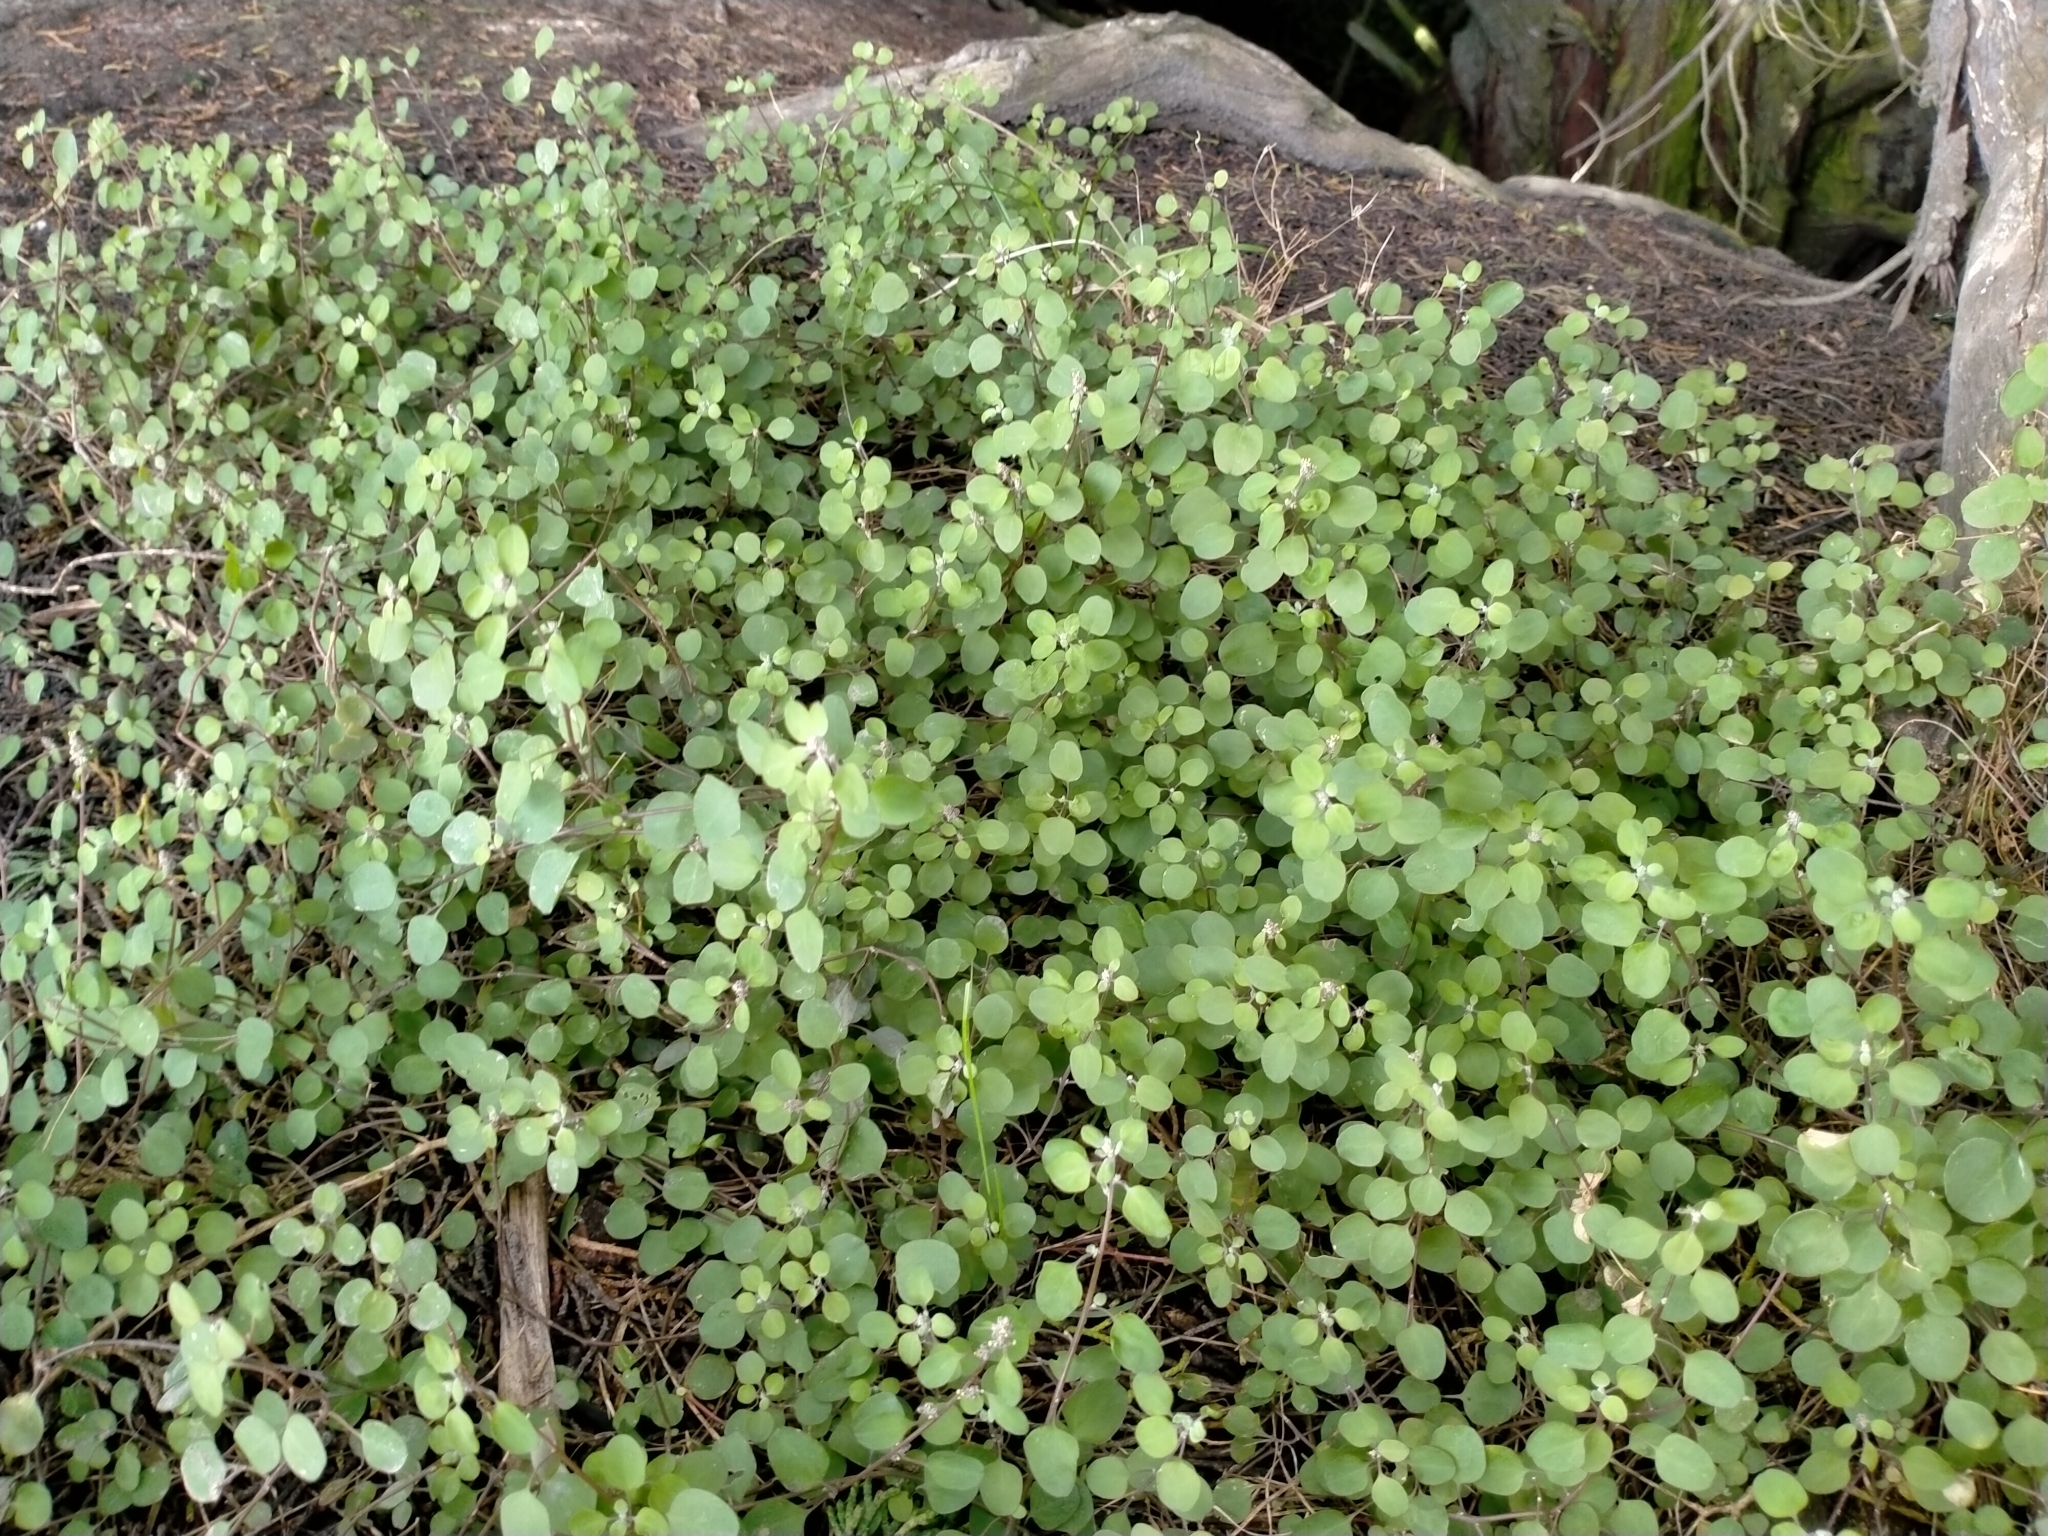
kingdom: Plantae
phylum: Tracheophyta
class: Magnoliopsida
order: Caryophyllales
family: Amaranthaceae
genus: Chenopodium
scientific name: Chenopodium allanii
